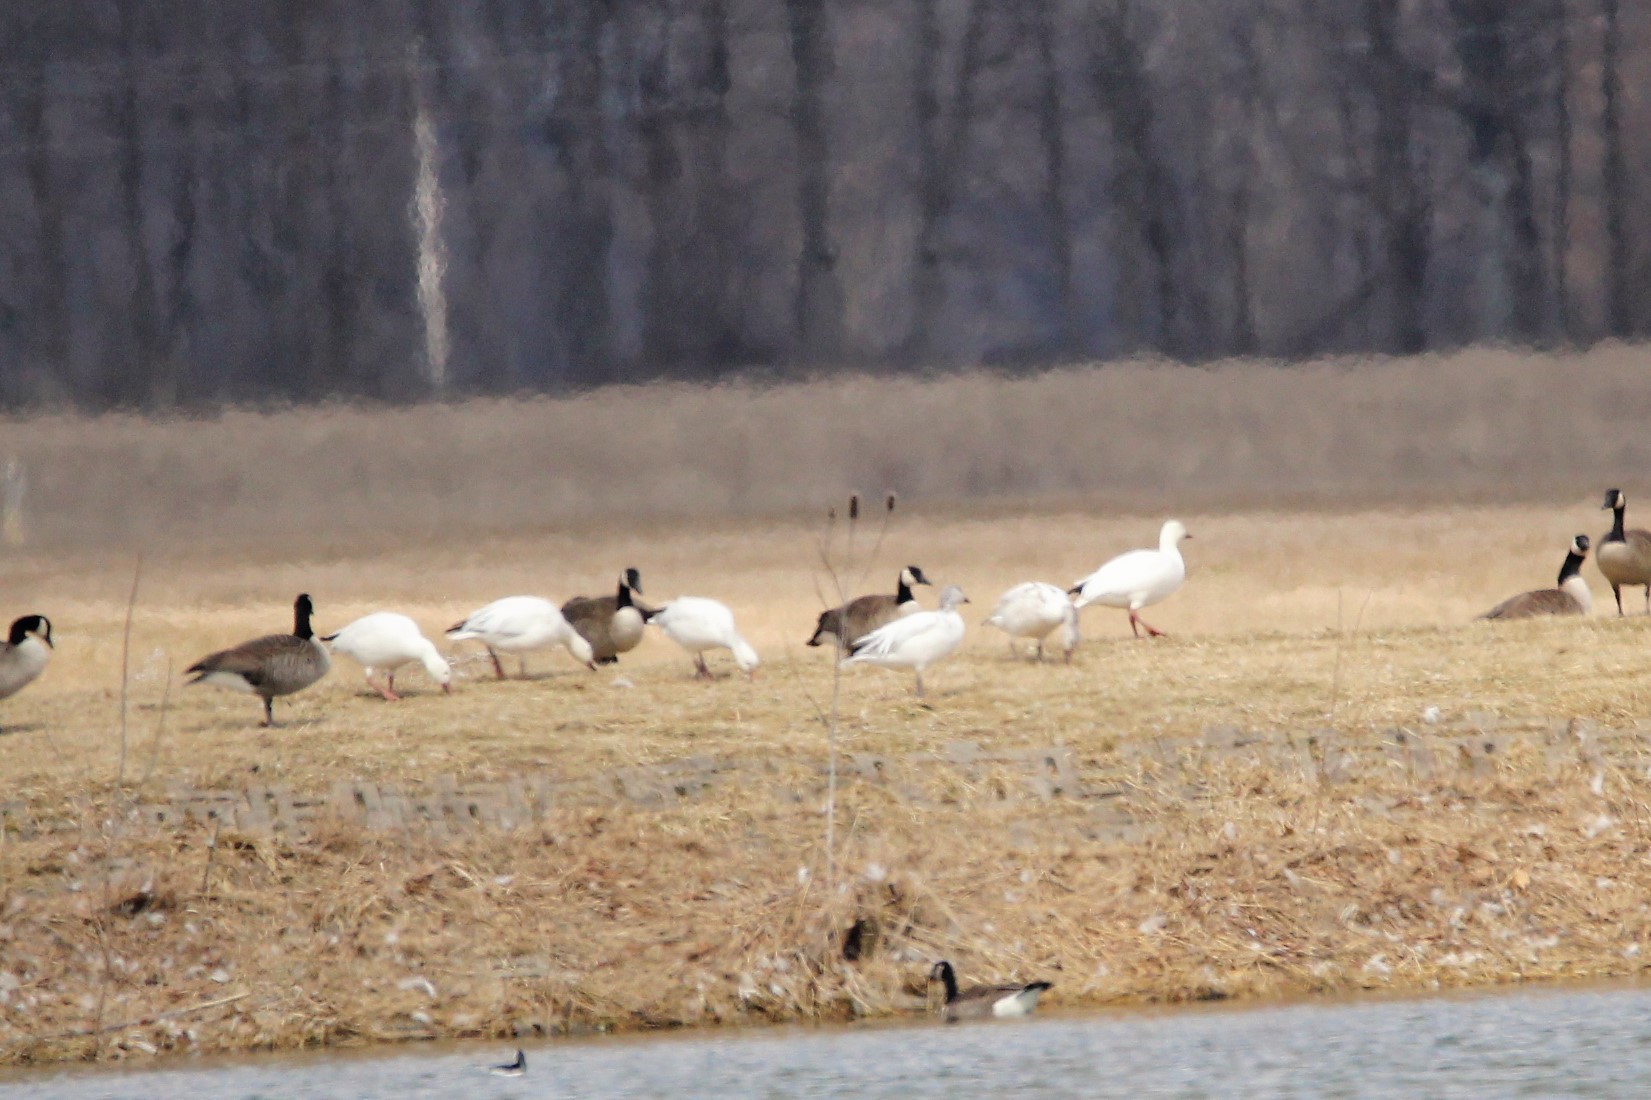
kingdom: Animalia
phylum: Chordata
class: Aves
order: Anseriformes
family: Anatidae
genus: Anser
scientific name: Anser caerulescens
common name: Snow goose
